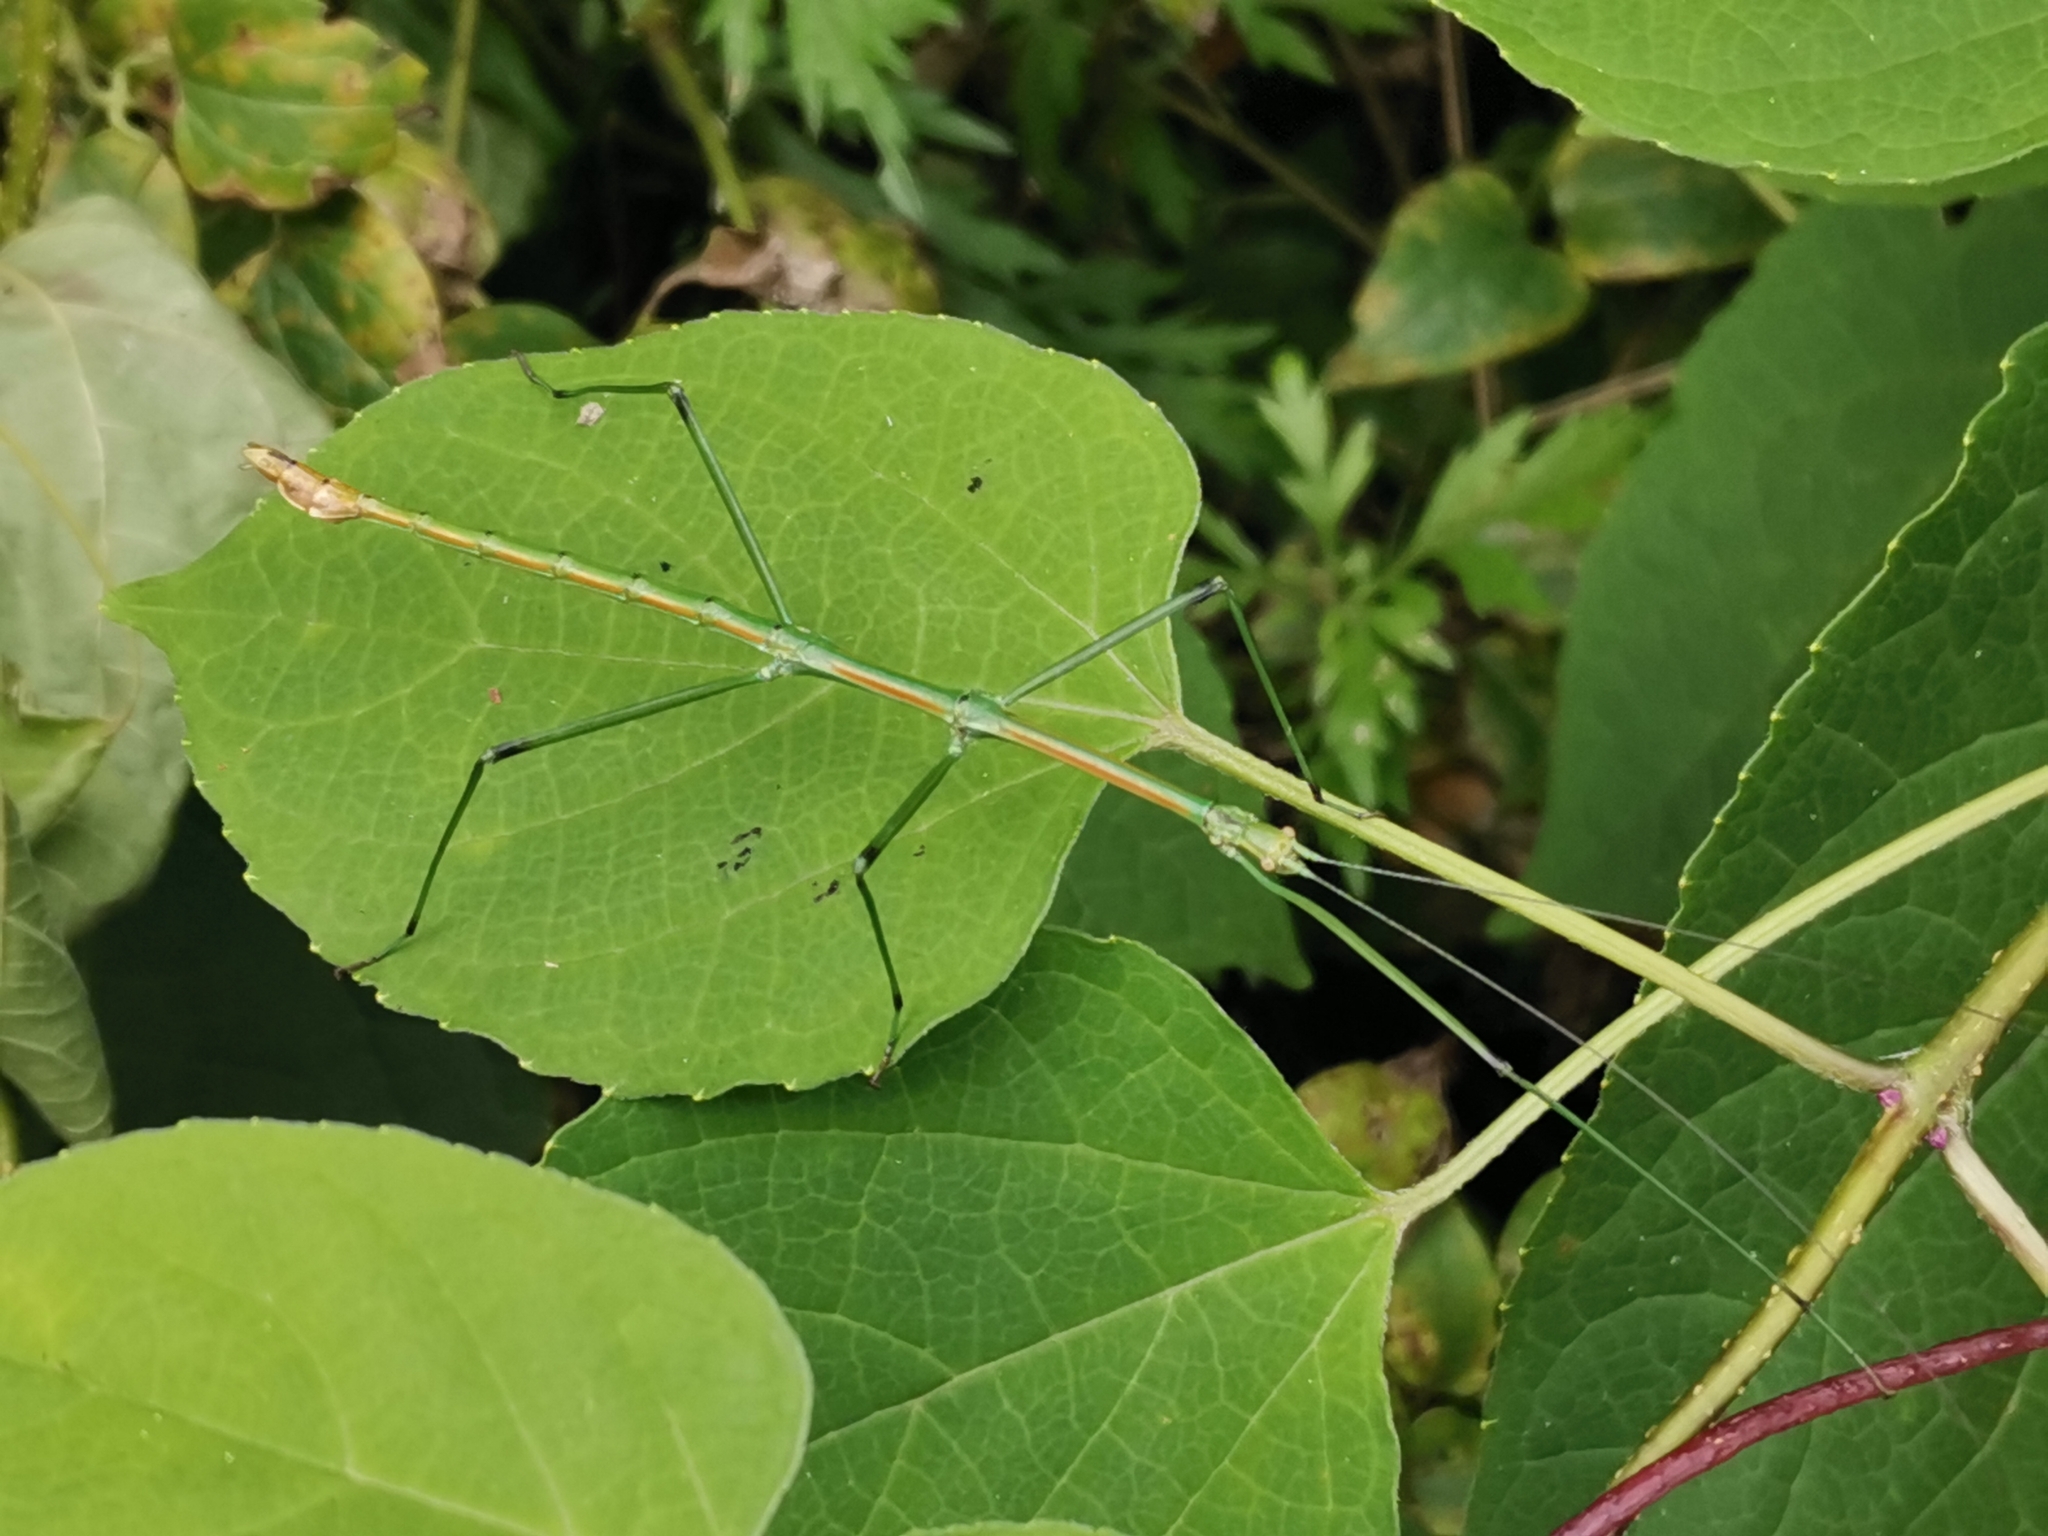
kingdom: Animalia
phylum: Arthropoda
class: Insecta
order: Phasmida
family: Lonchodidae
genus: Phraortes
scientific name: Phraortes elongatus
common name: Japanese stick-insect
